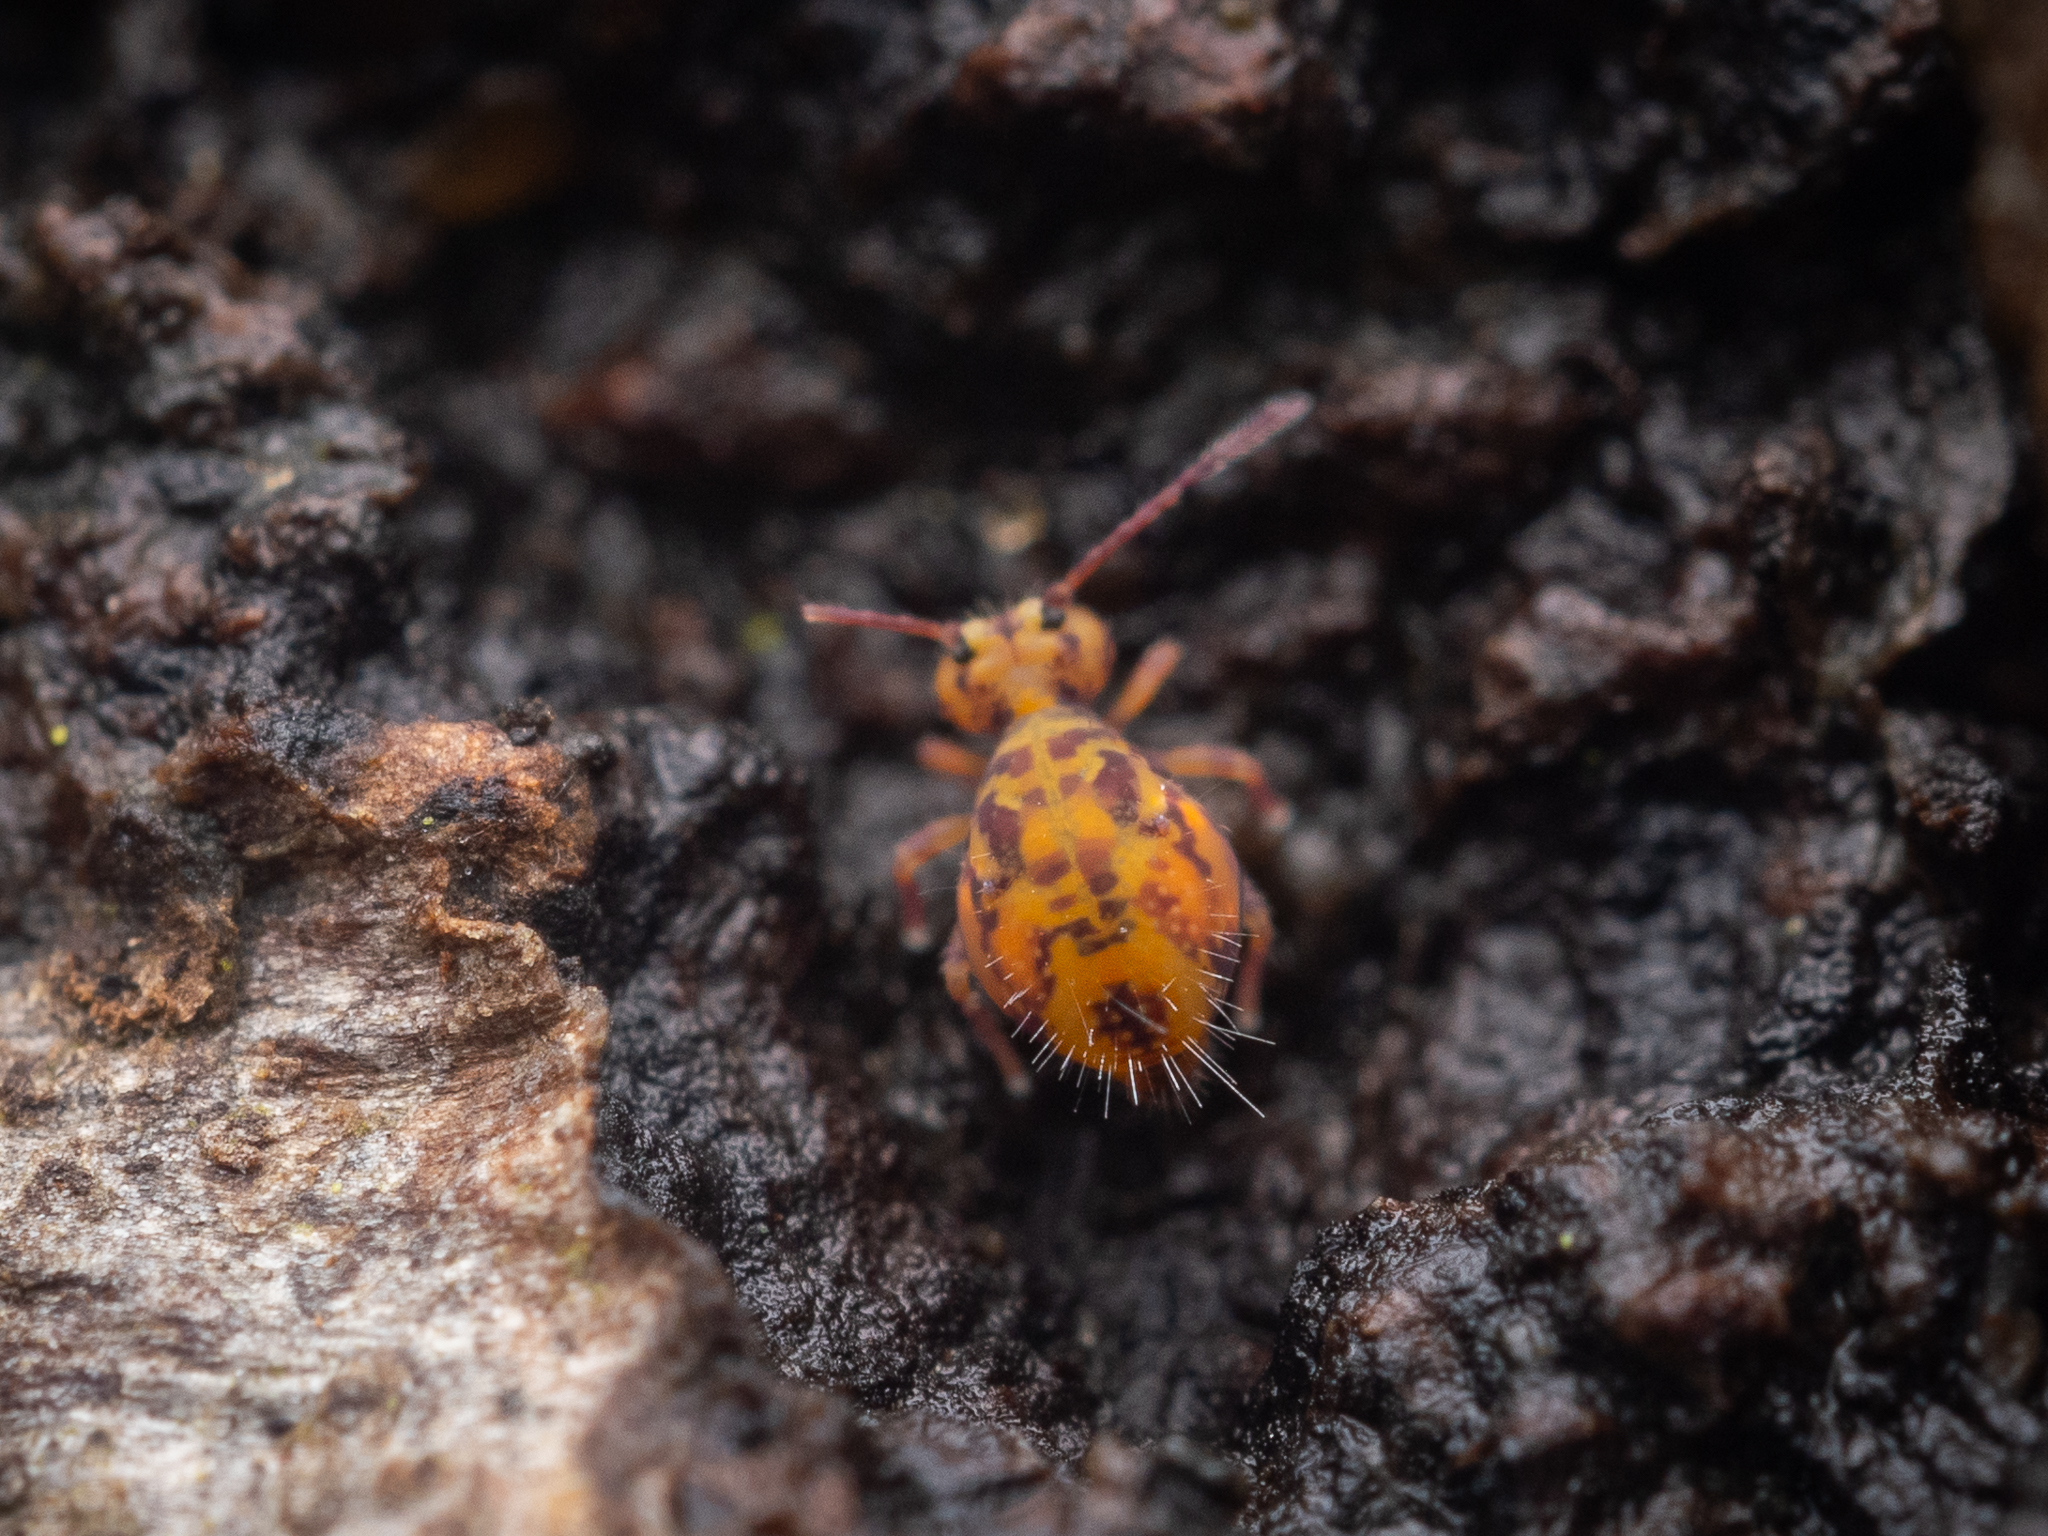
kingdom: Animalia
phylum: Arthropoda
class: Collembola
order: Symphypleona
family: Dicyrtomidae
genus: Dicyrtomina
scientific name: Dicyrtomina ornata
